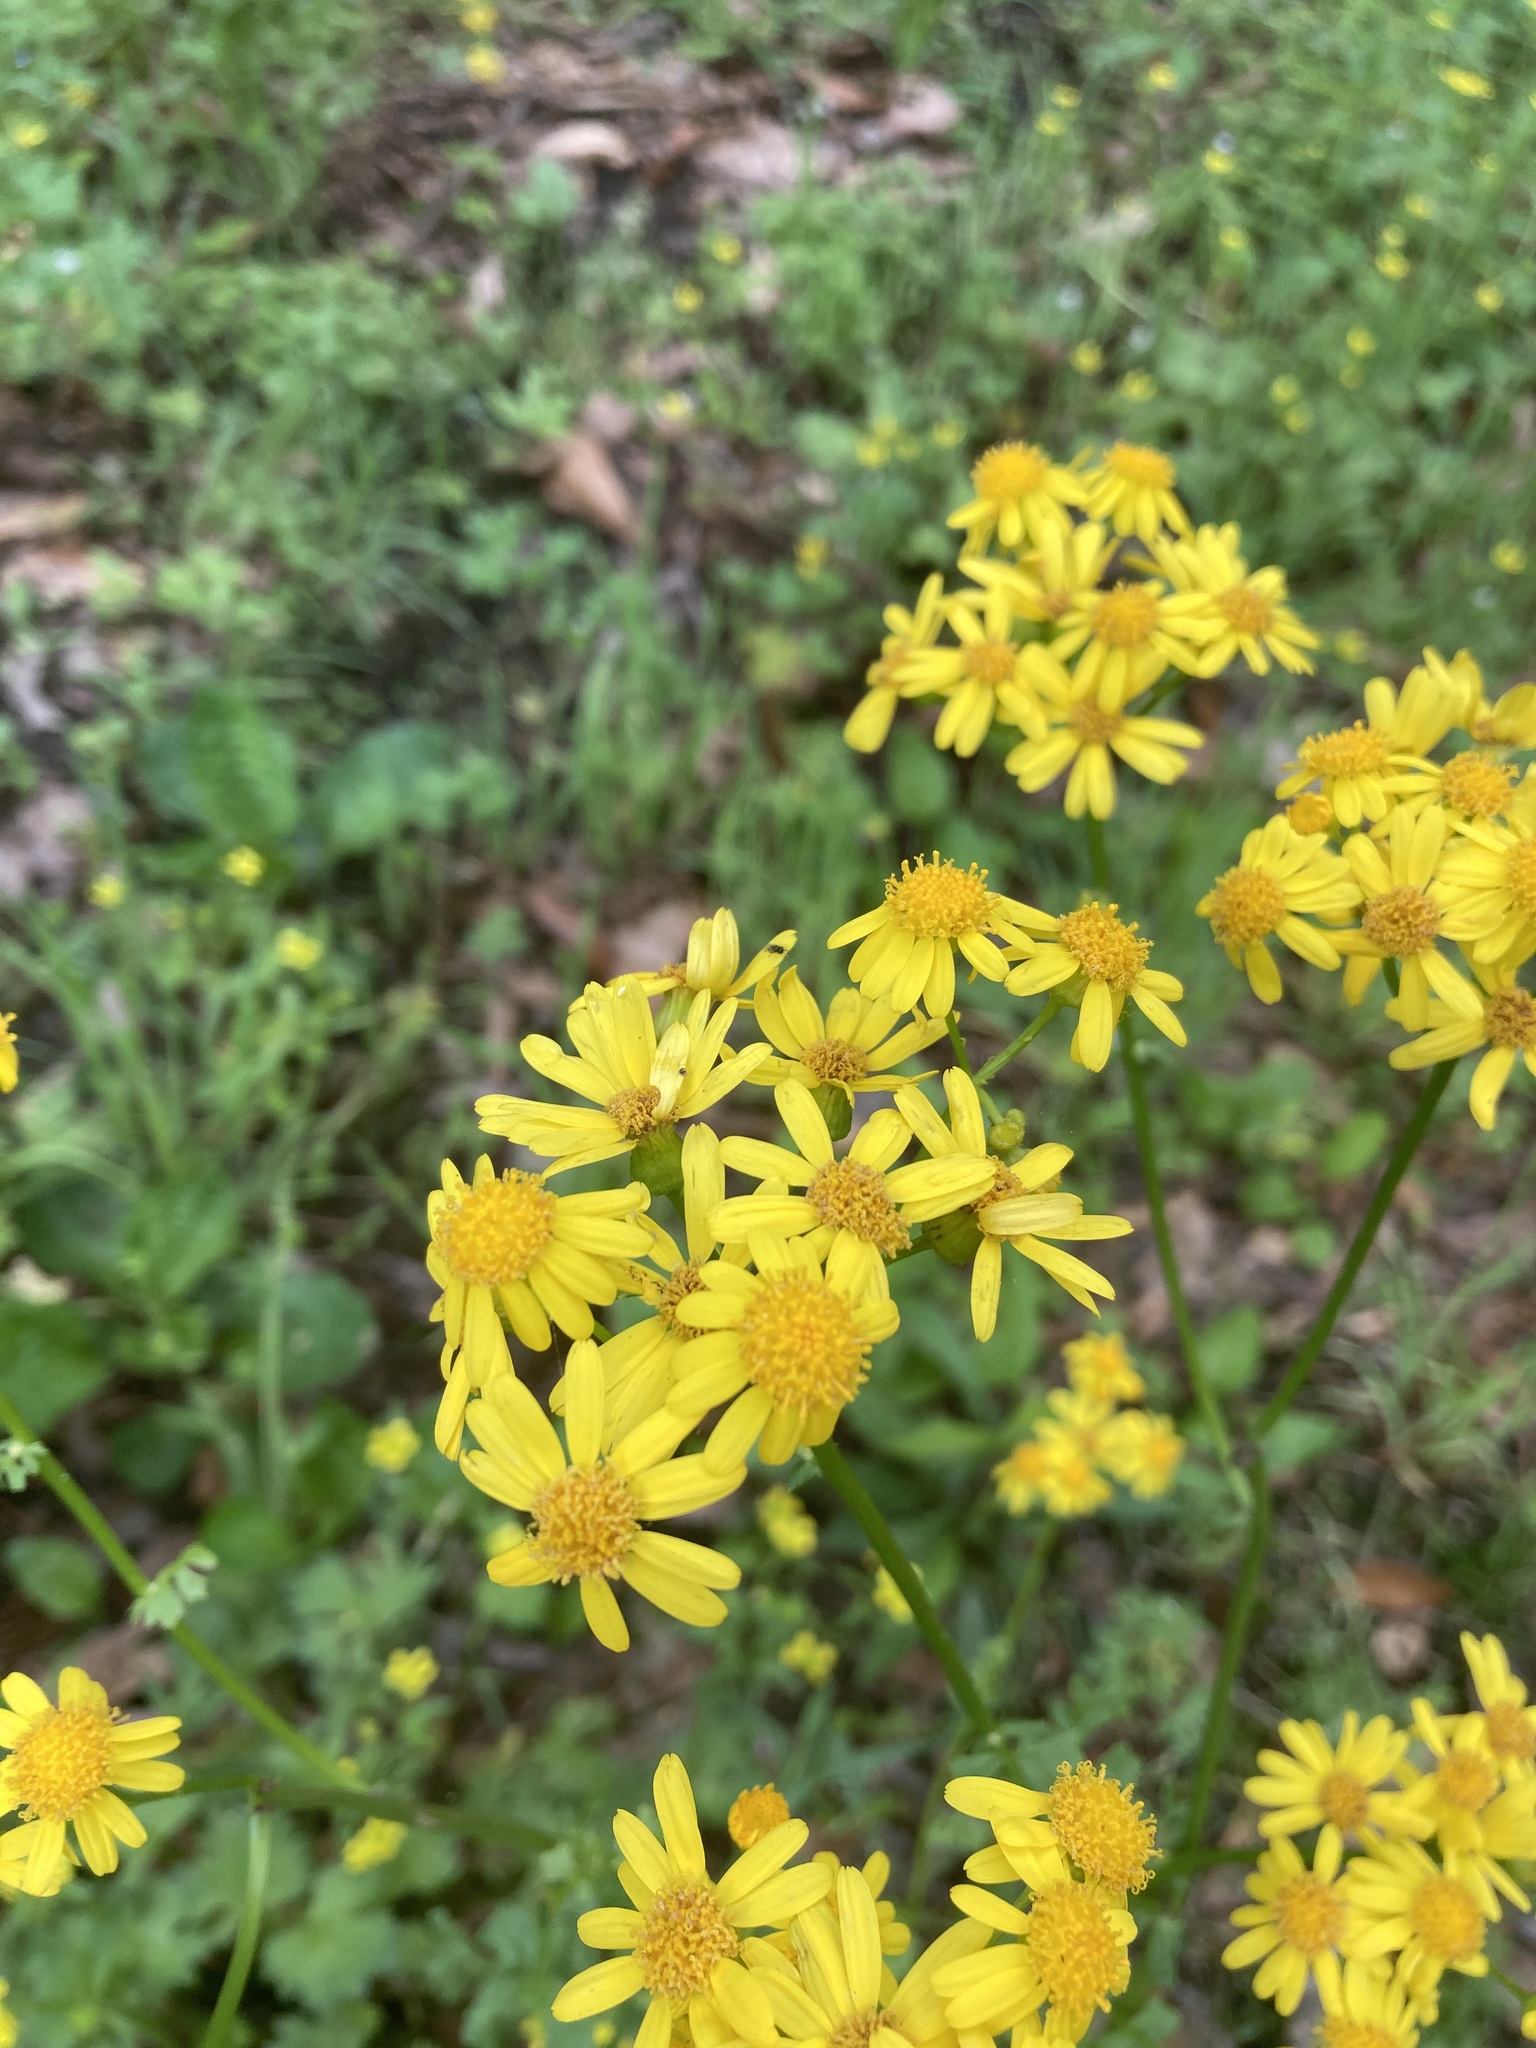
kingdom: Plantae
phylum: Tracheophyta
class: Magnoliopsida
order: Asterales
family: Asteraceae
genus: Packera
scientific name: Packera glabella
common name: Butterweed
